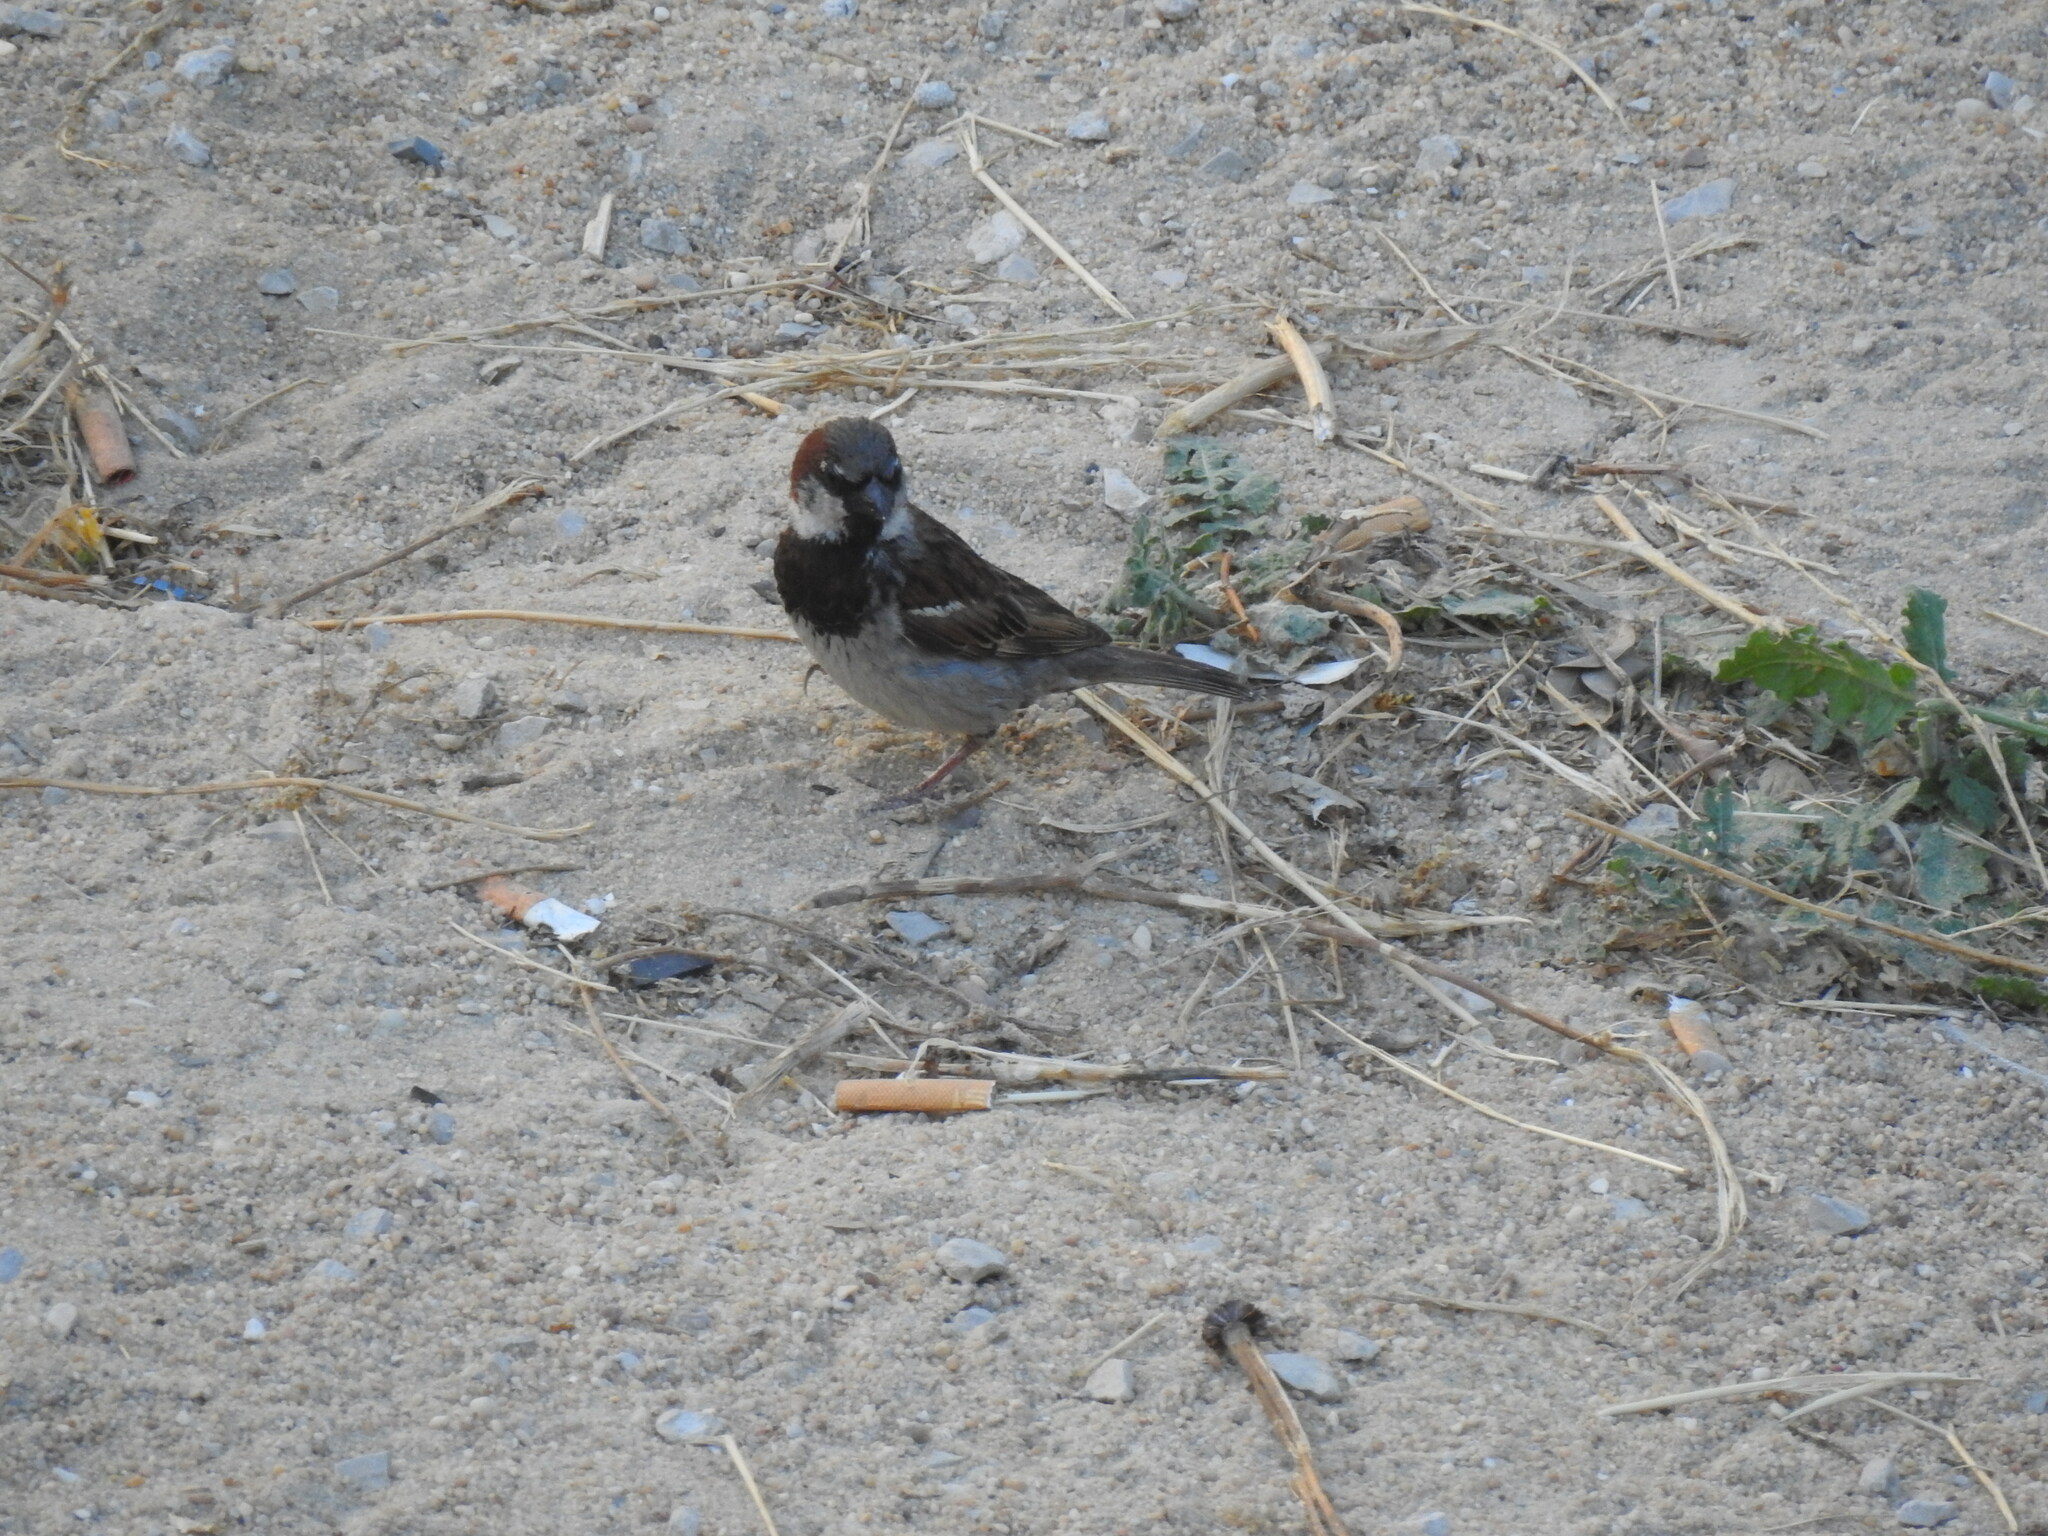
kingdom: Animalia
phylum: Chordata
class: Aves
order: Passeriformes
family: Passeridae
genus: Passer
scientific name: Passer domesticus
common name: House sparrow
